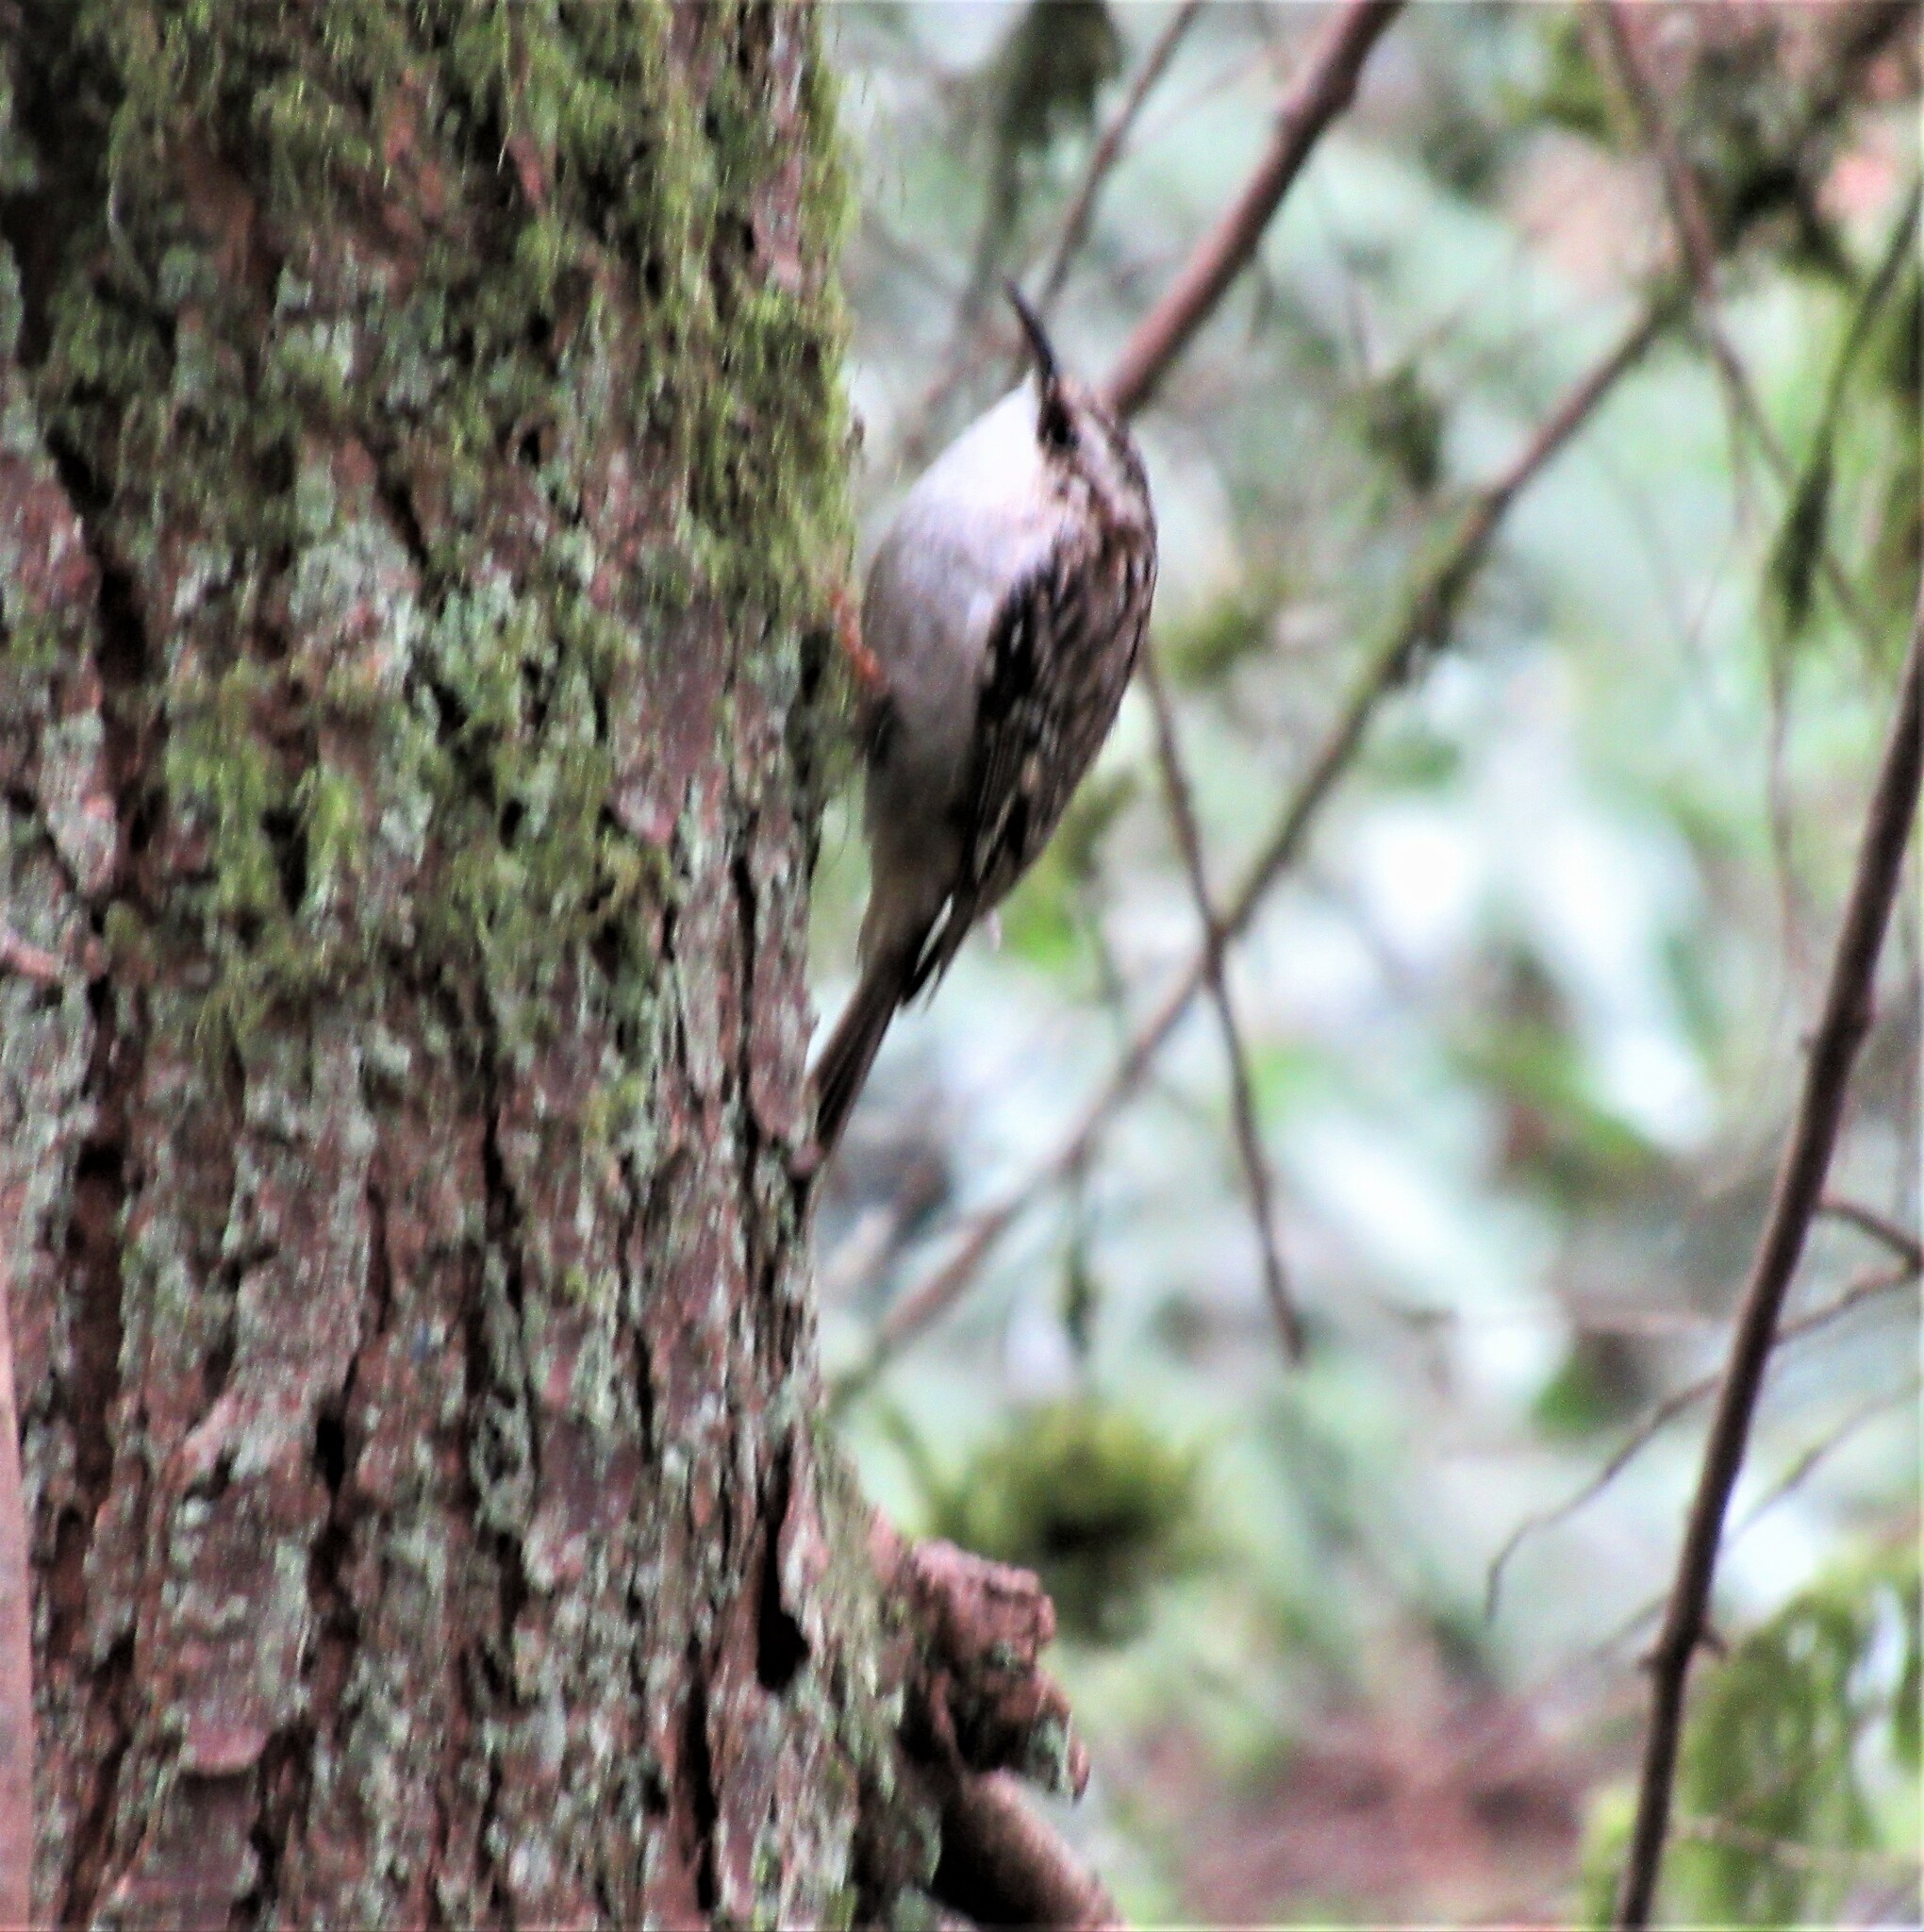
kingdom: Animalia
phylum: Chordata
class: Aves
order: Passeriformes
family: Certhiidae
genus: Certhia
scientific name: Certhia americana
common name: Brown creeper
